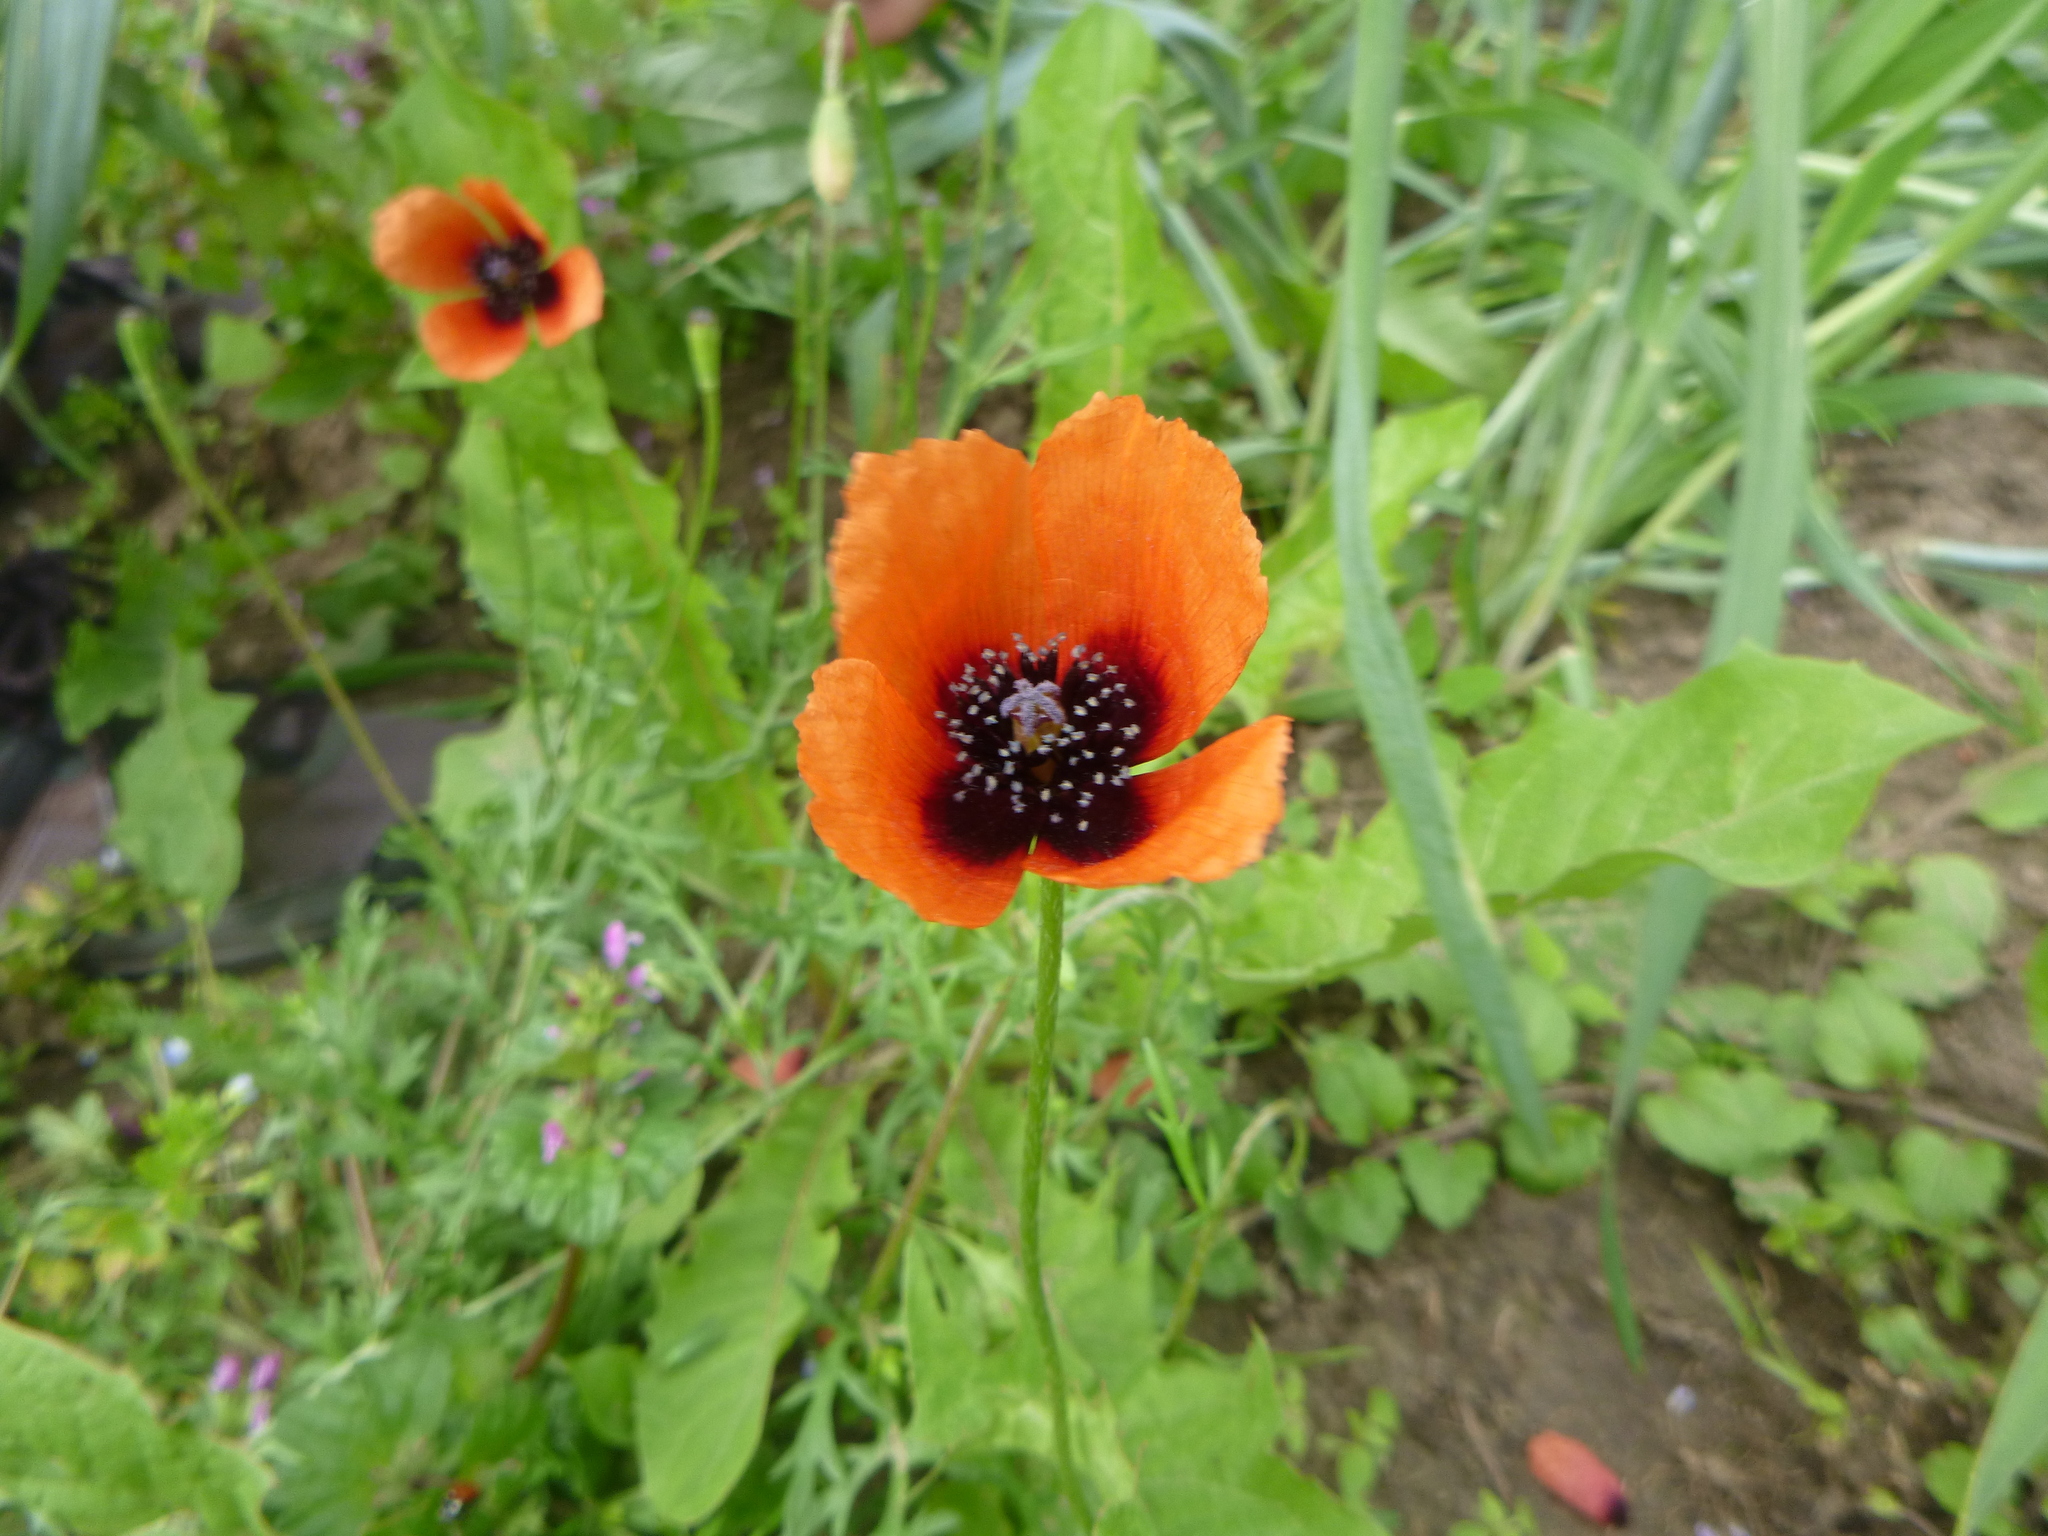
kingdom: Plantae
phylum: Tracheophyta
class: Magnoliopsida
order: Ranunculales
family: Papaveraceae
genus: Roemeria
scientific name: Roemeria argemone
